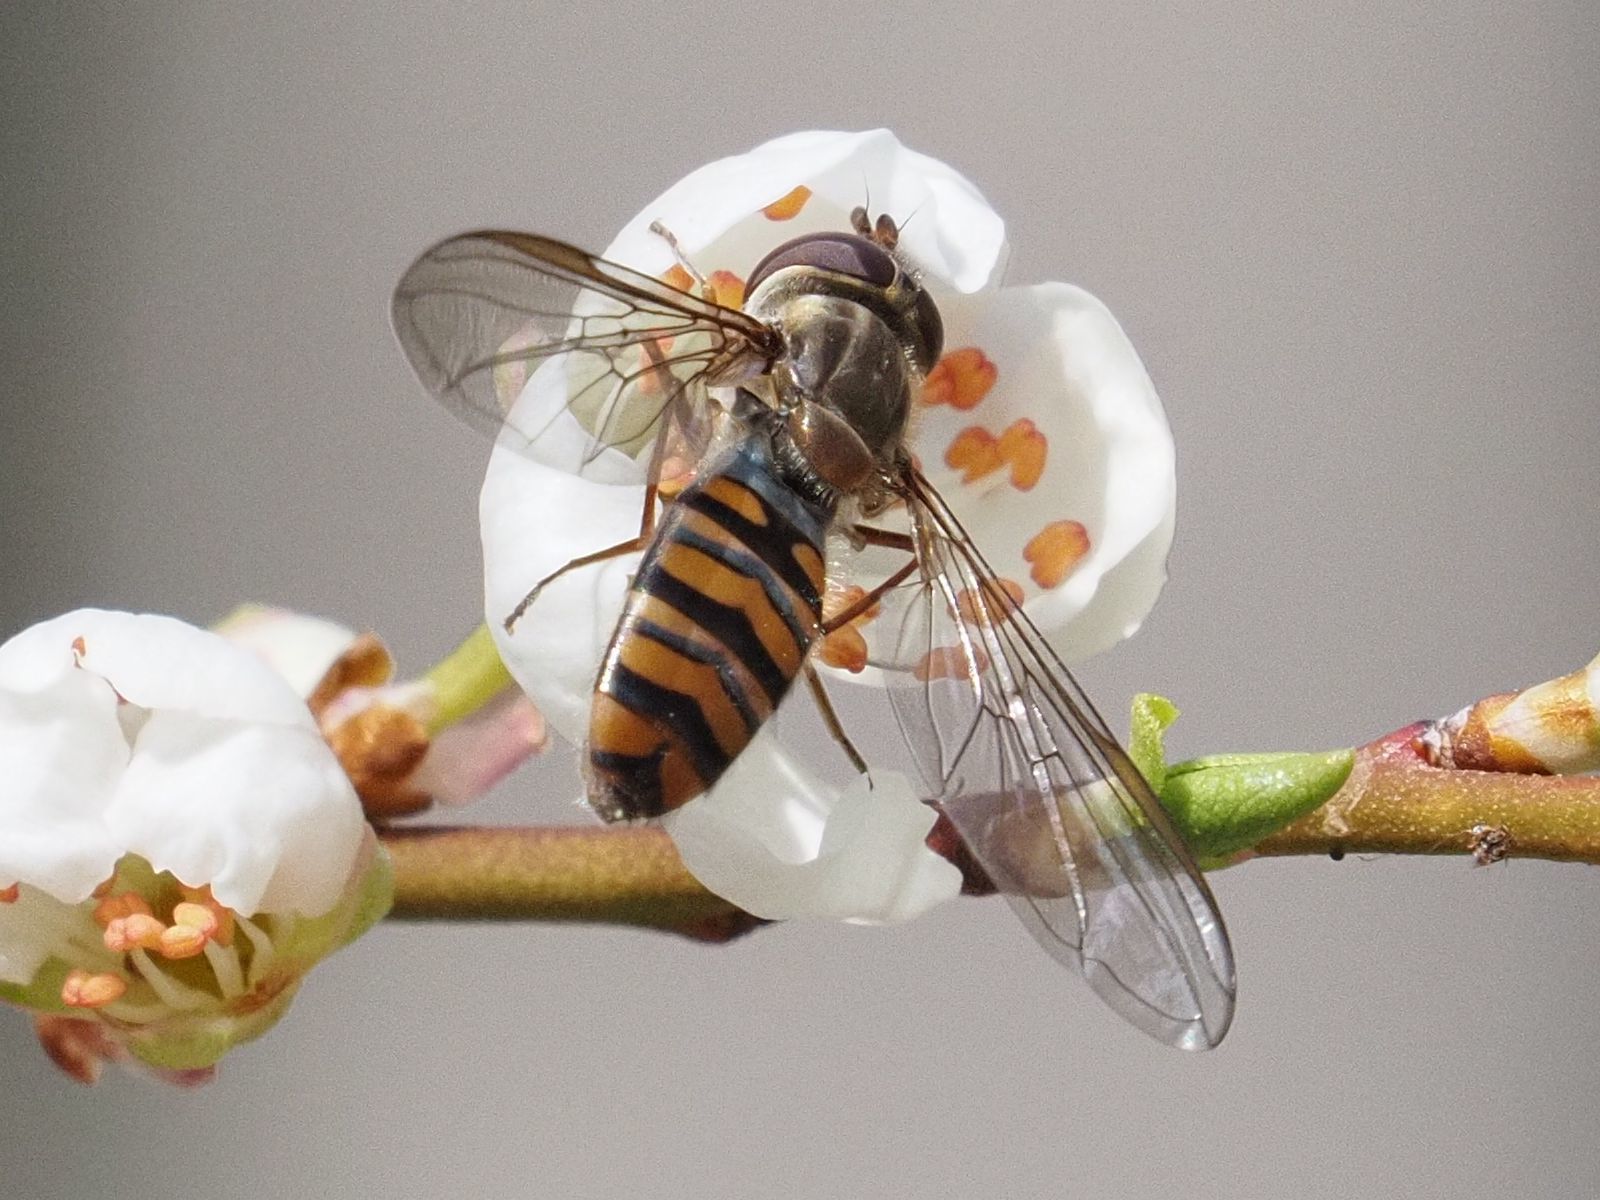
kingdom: Animalia
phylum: Arthropoda
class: Insecta
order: Diptera
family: Syrphidae
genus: Episyrphus
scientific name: Episyrphus balteatus
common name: Marmalade hoverfly
